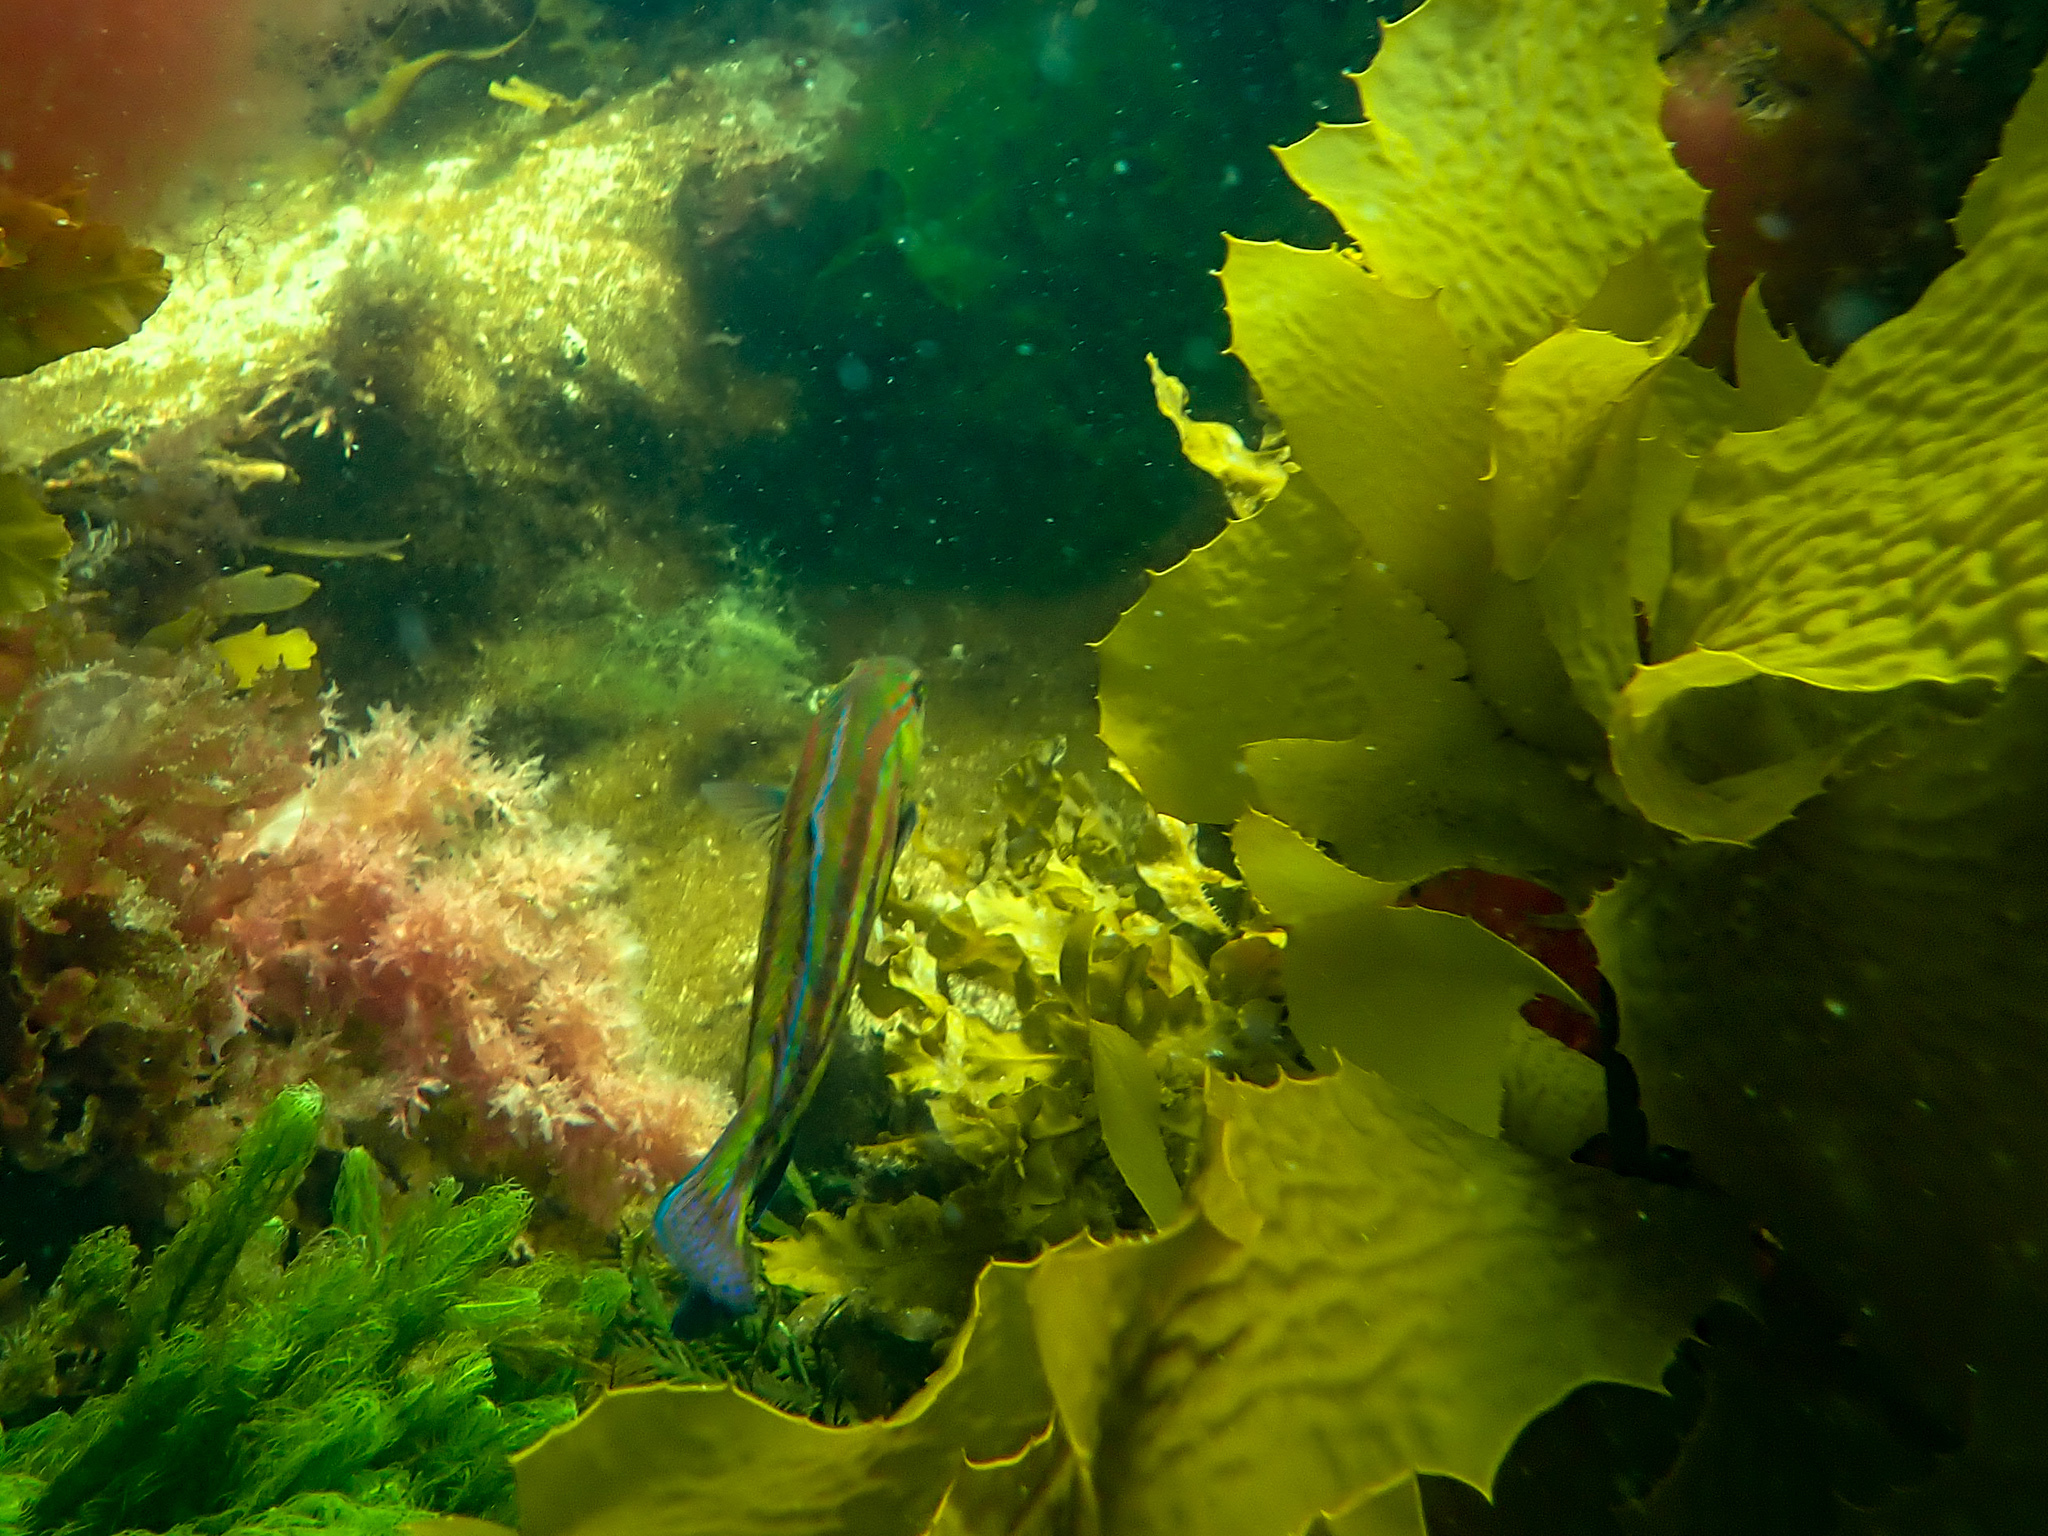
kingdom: Animalia
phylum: Chordata
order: Perciformes
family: Labridae
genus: Pictilabrus
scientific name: Pictilabrus laticlavius
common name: Patrician wrasse
